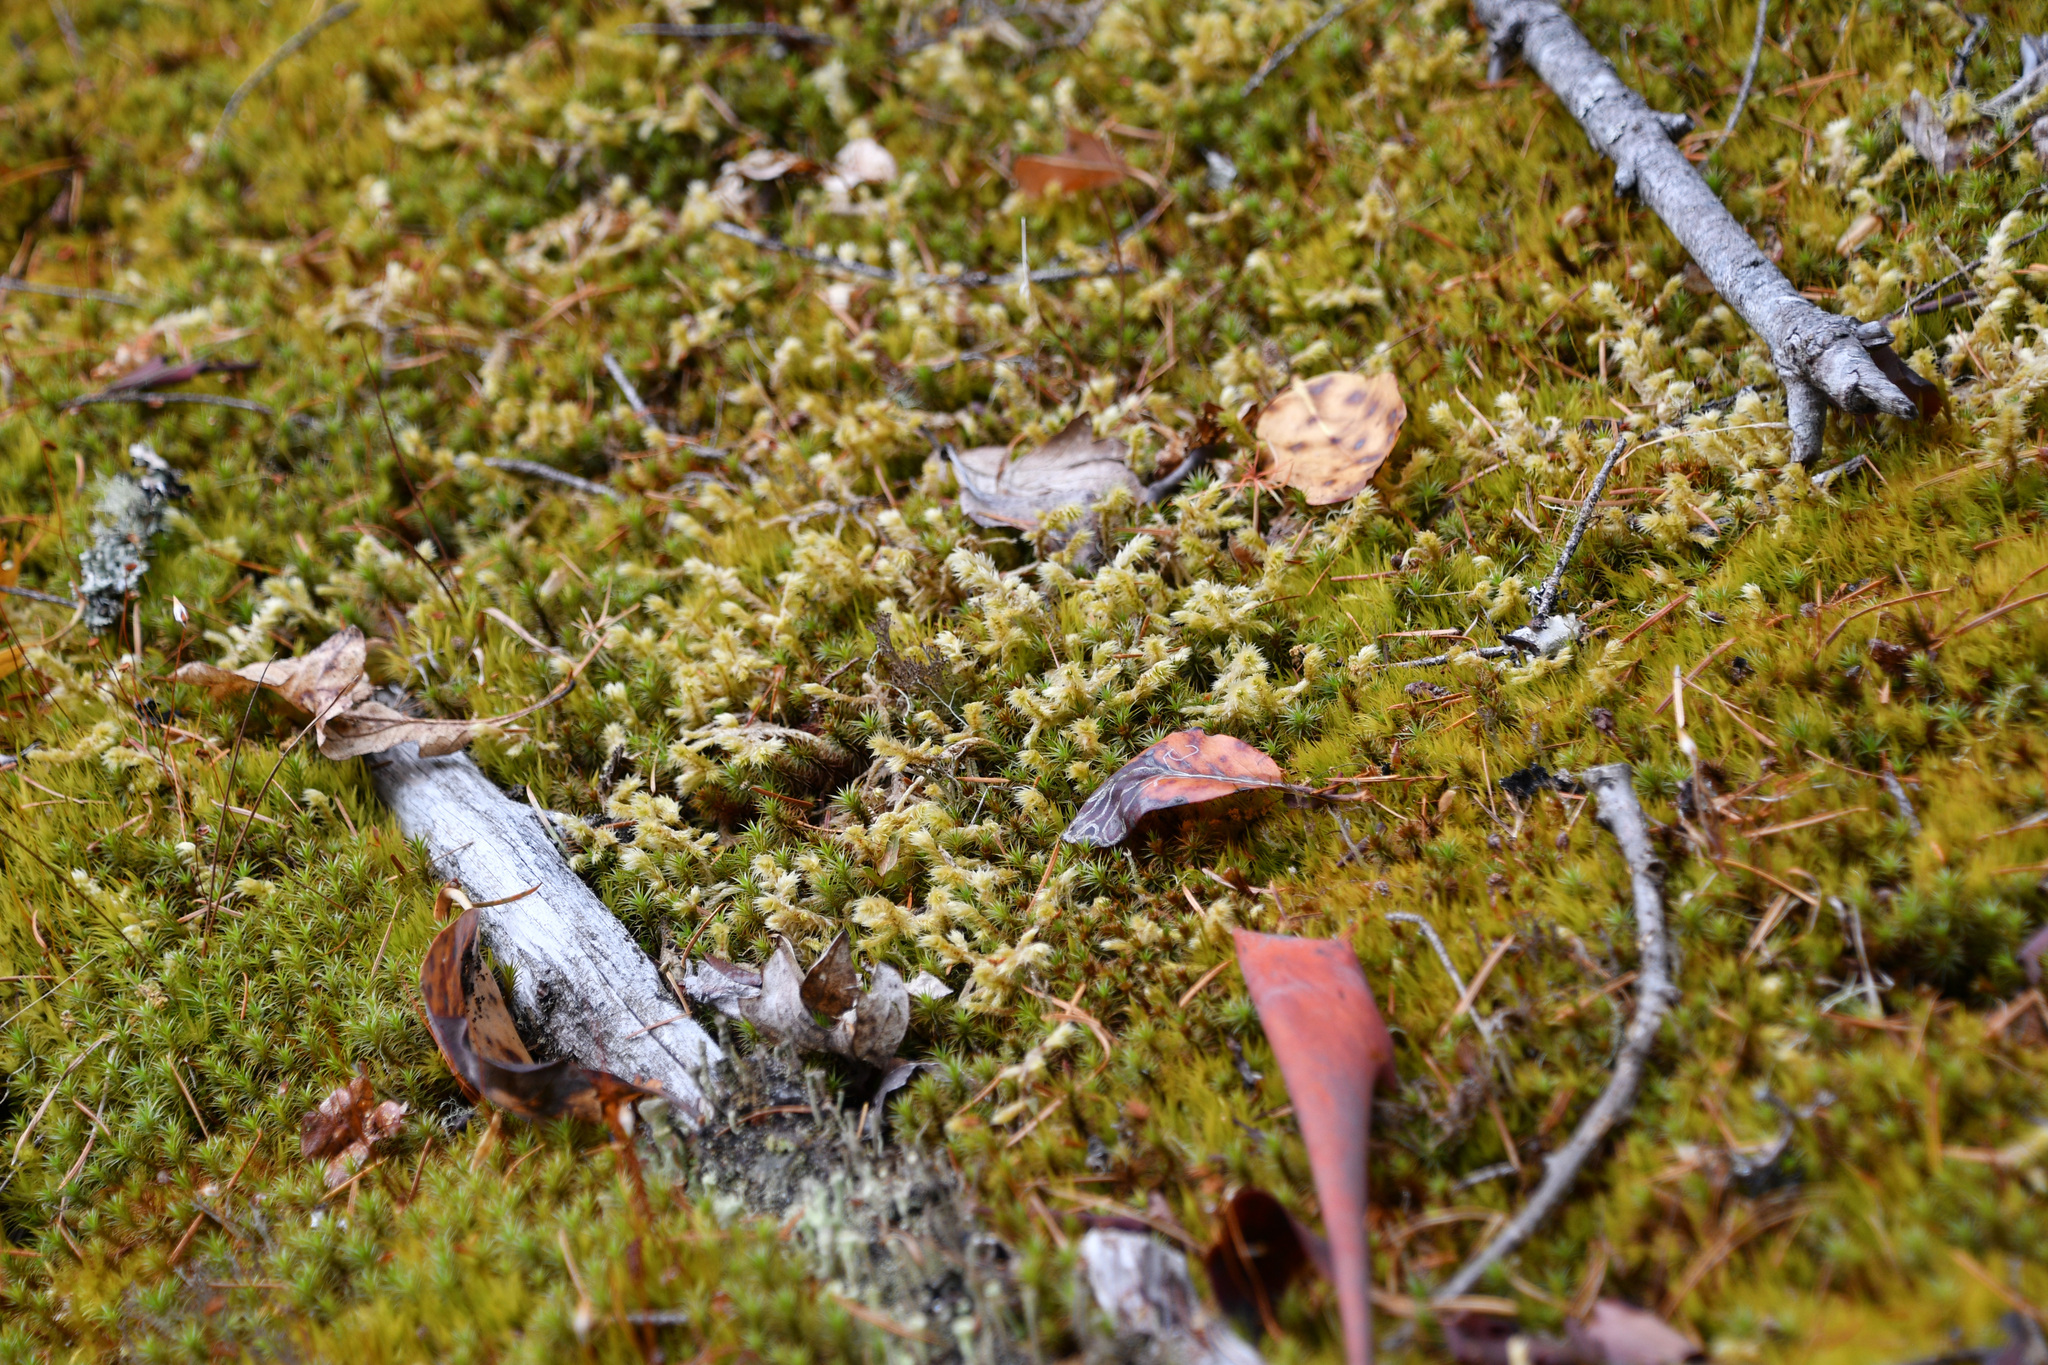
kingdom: Plantae
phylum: Bryophyta
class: Bryopsida
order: Hypnales
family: Hylocomiaceae
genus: Hylocomiadelphus
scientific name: Hylocomiadelphus triquetrus
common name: Rough goose neck moss
